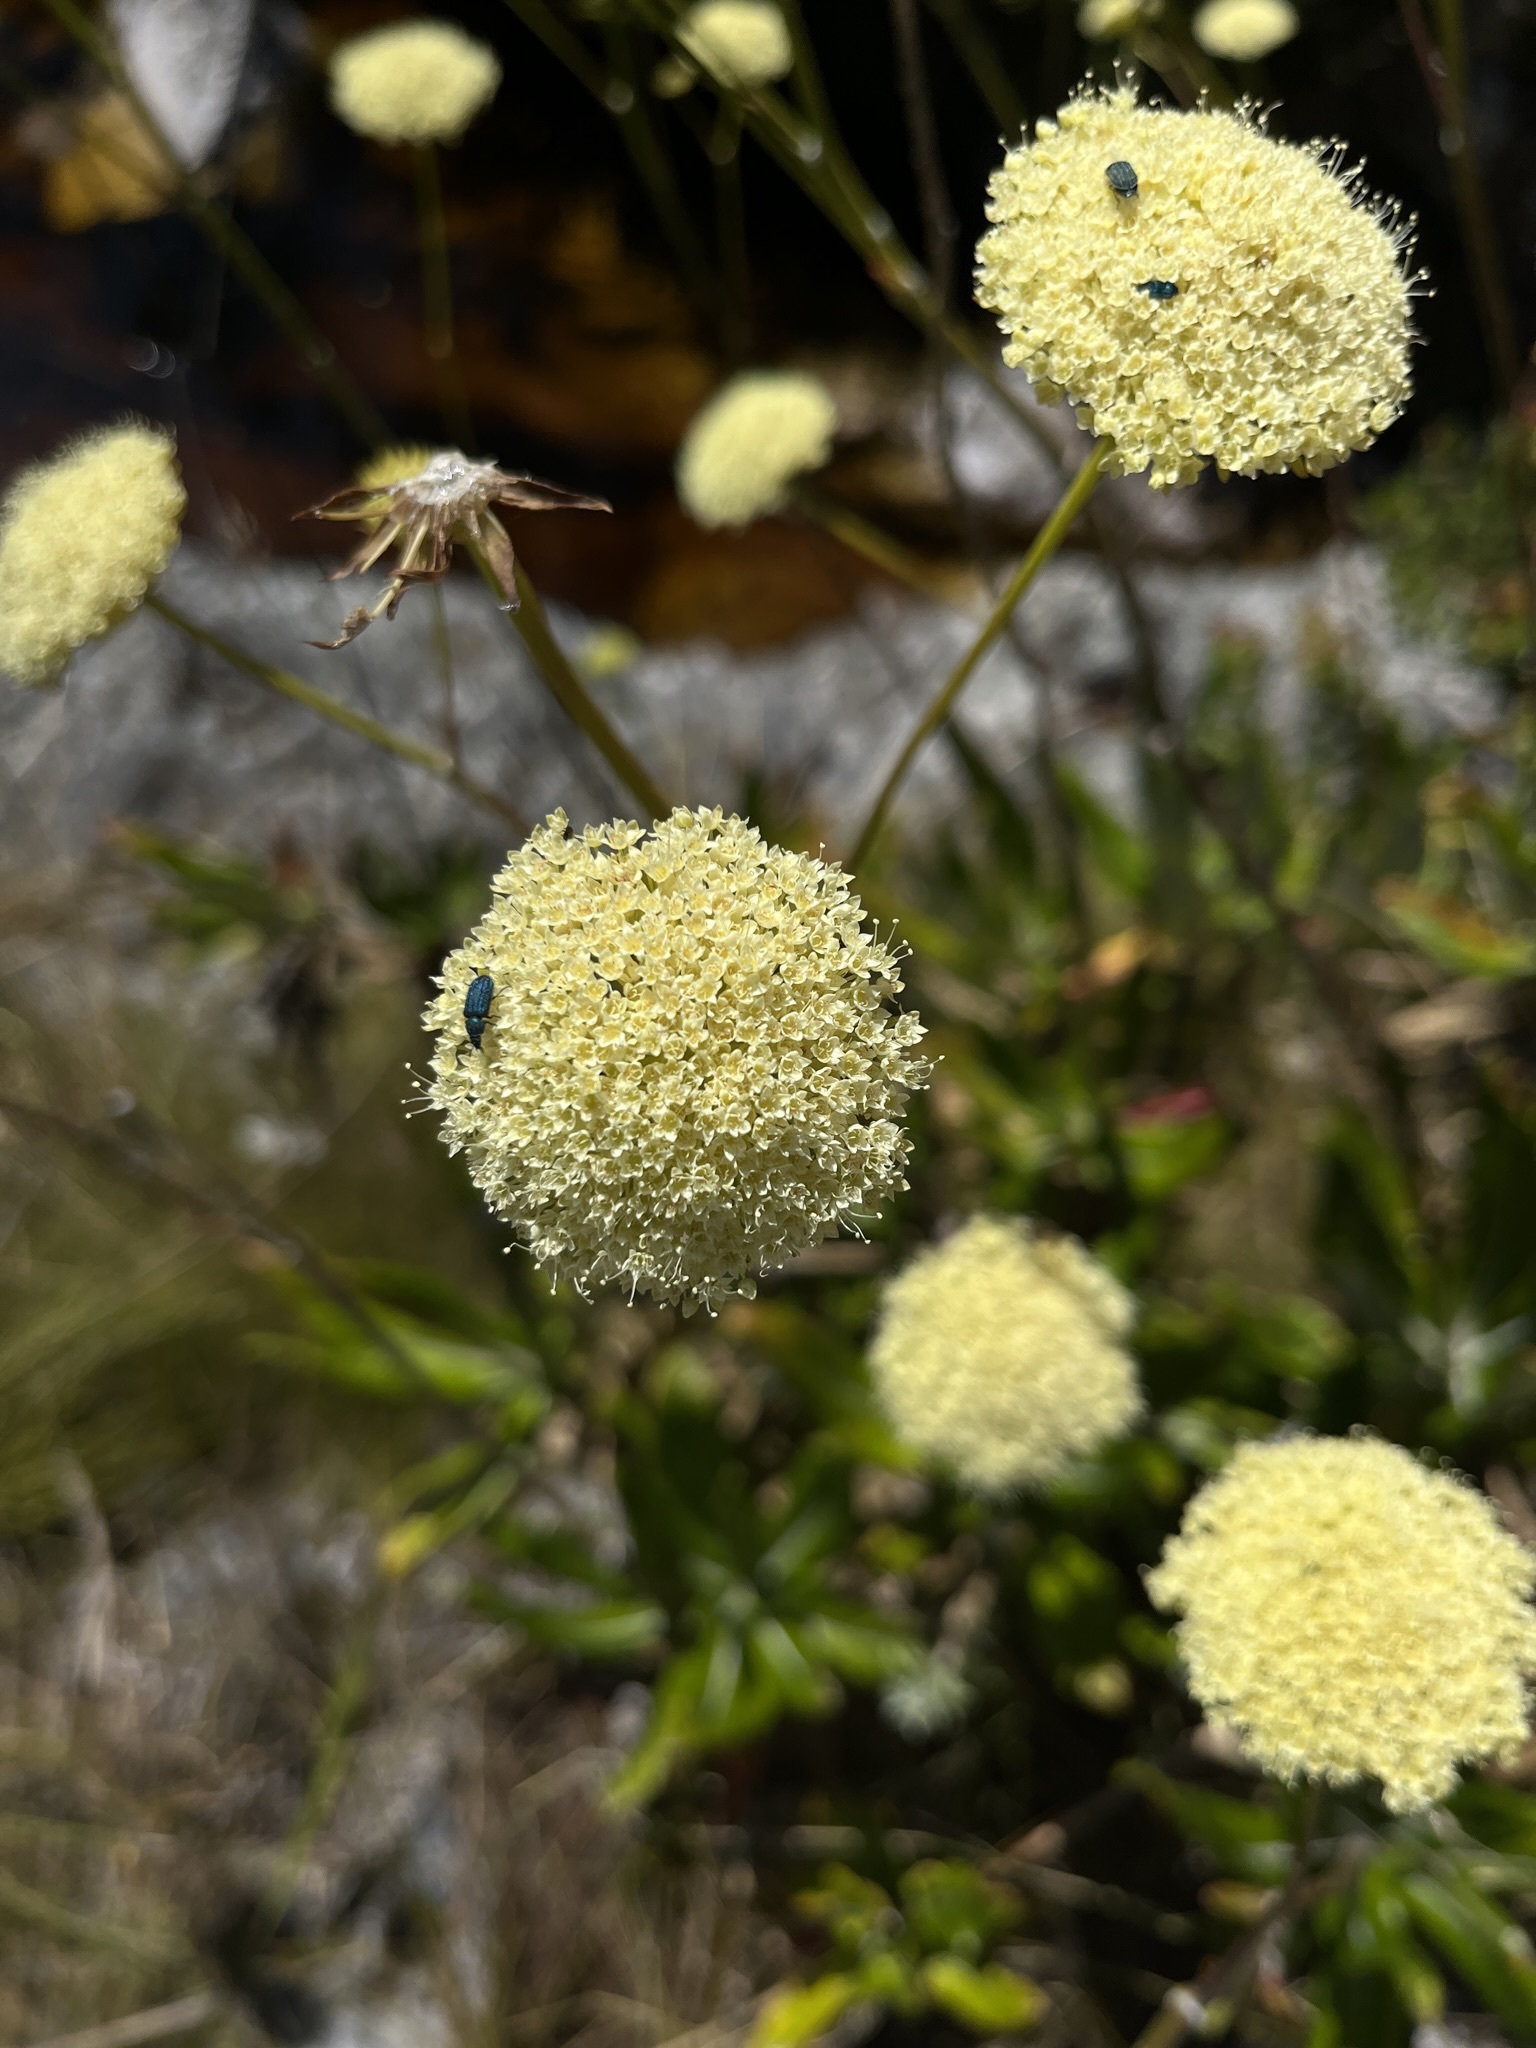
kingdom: Plantae
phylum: Tracheophyta
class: Magnoliopsida
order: Apiales
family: Apiaceae
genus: Hermas
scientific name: Hermas villosa
